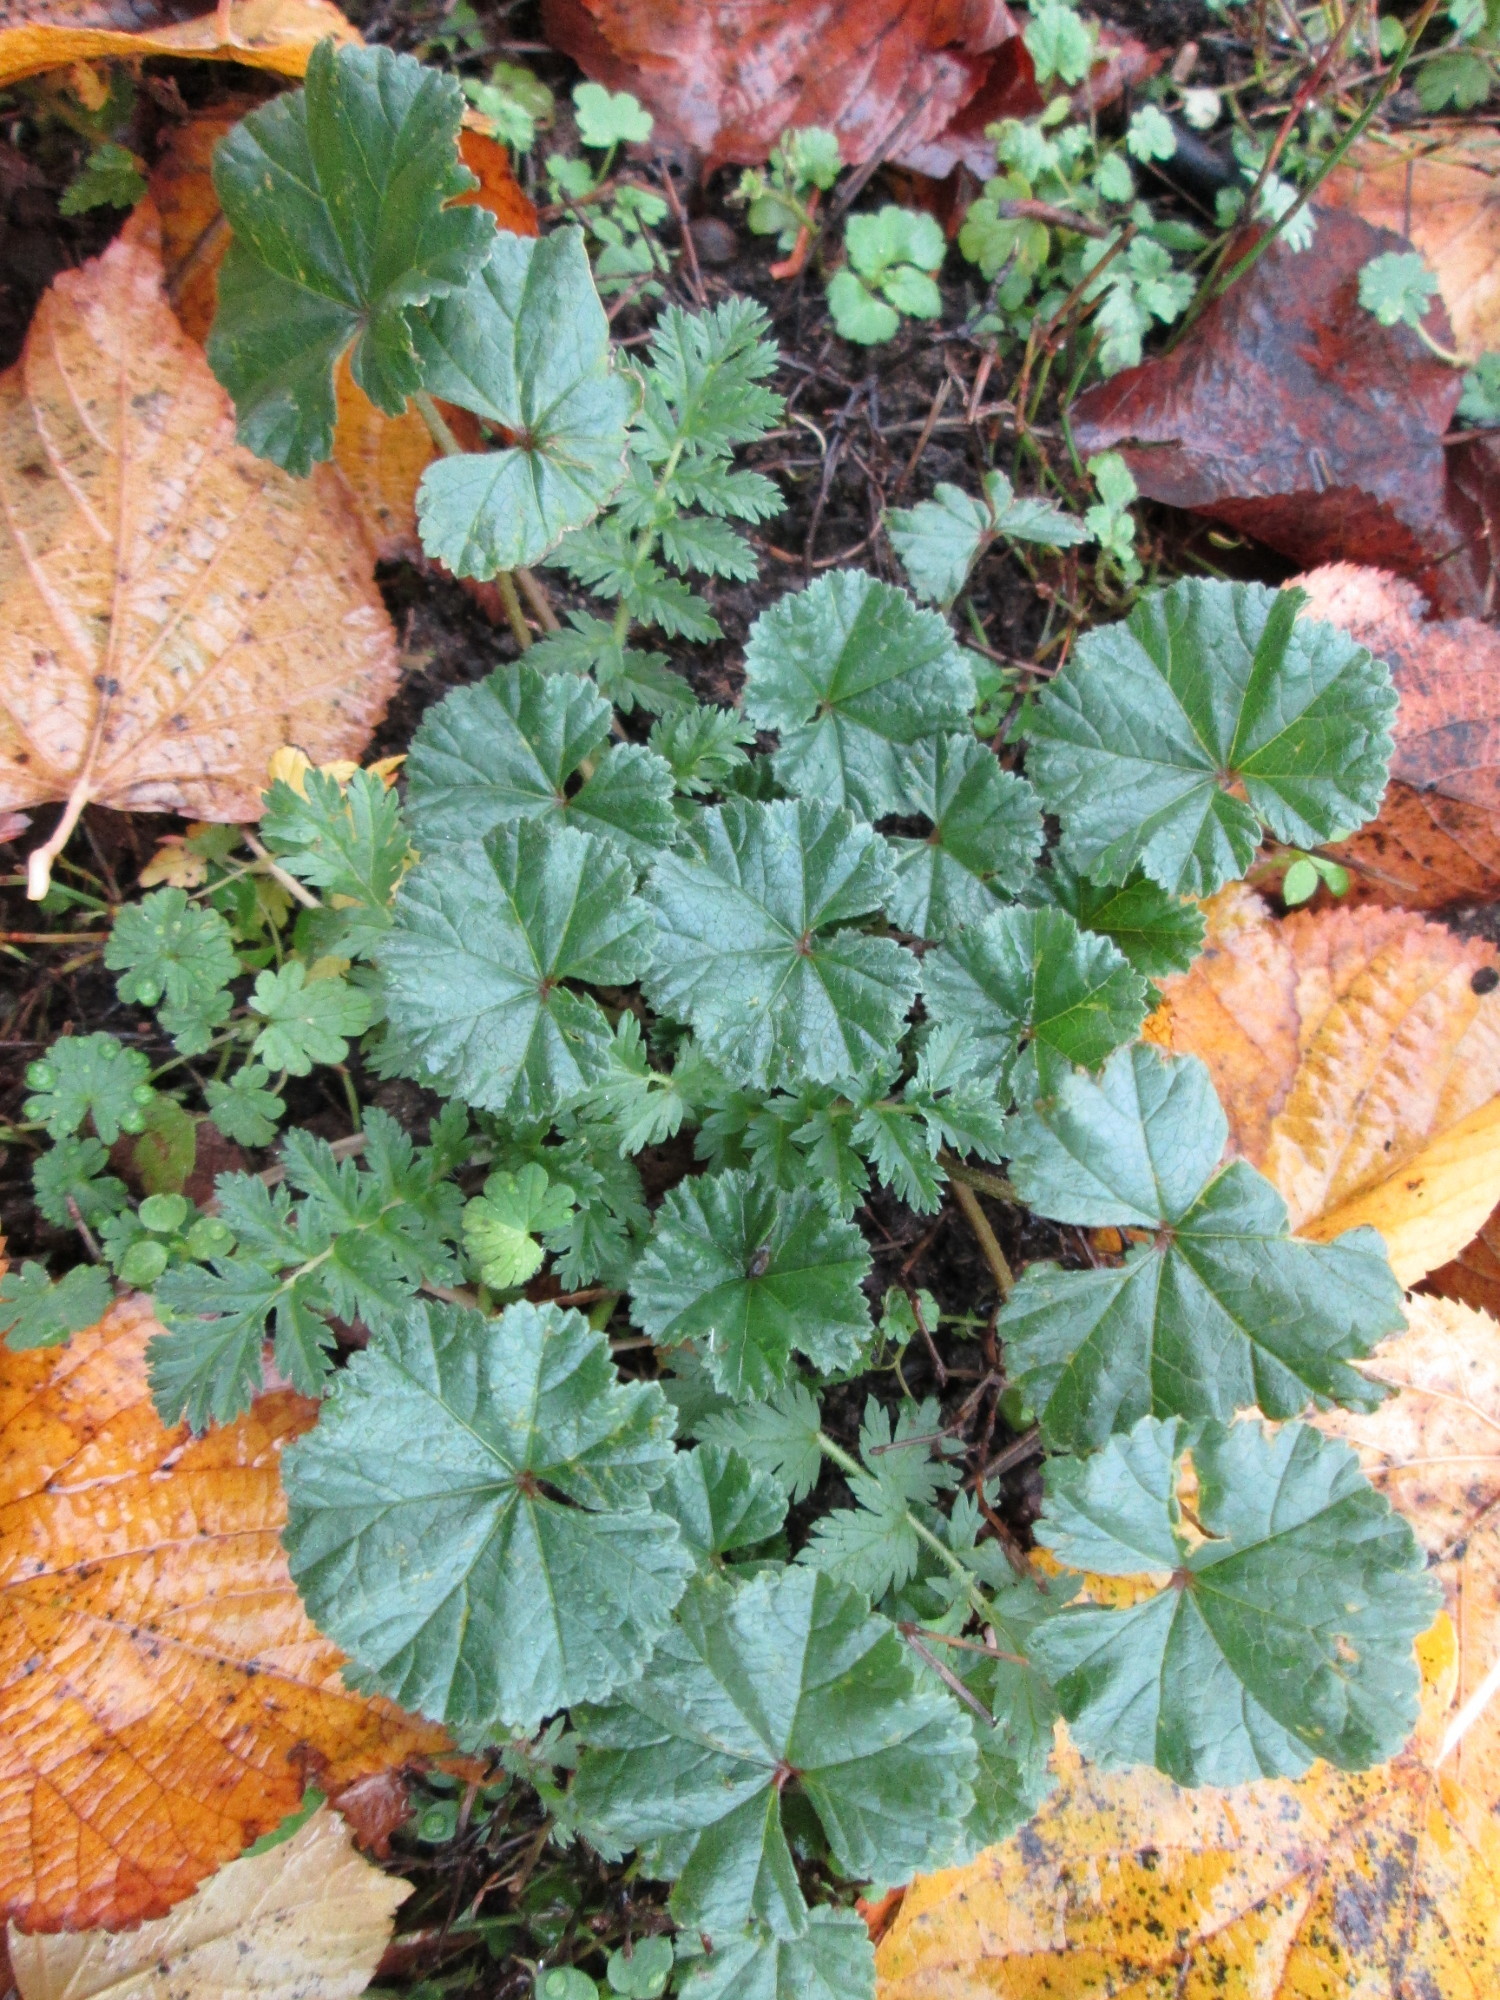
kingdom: Plantae
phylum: Tracheophyta
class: Magnoliopsida
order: Malvales
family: Malvaceae
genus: Malva
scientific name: Malva neglecta
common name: Common mallow
